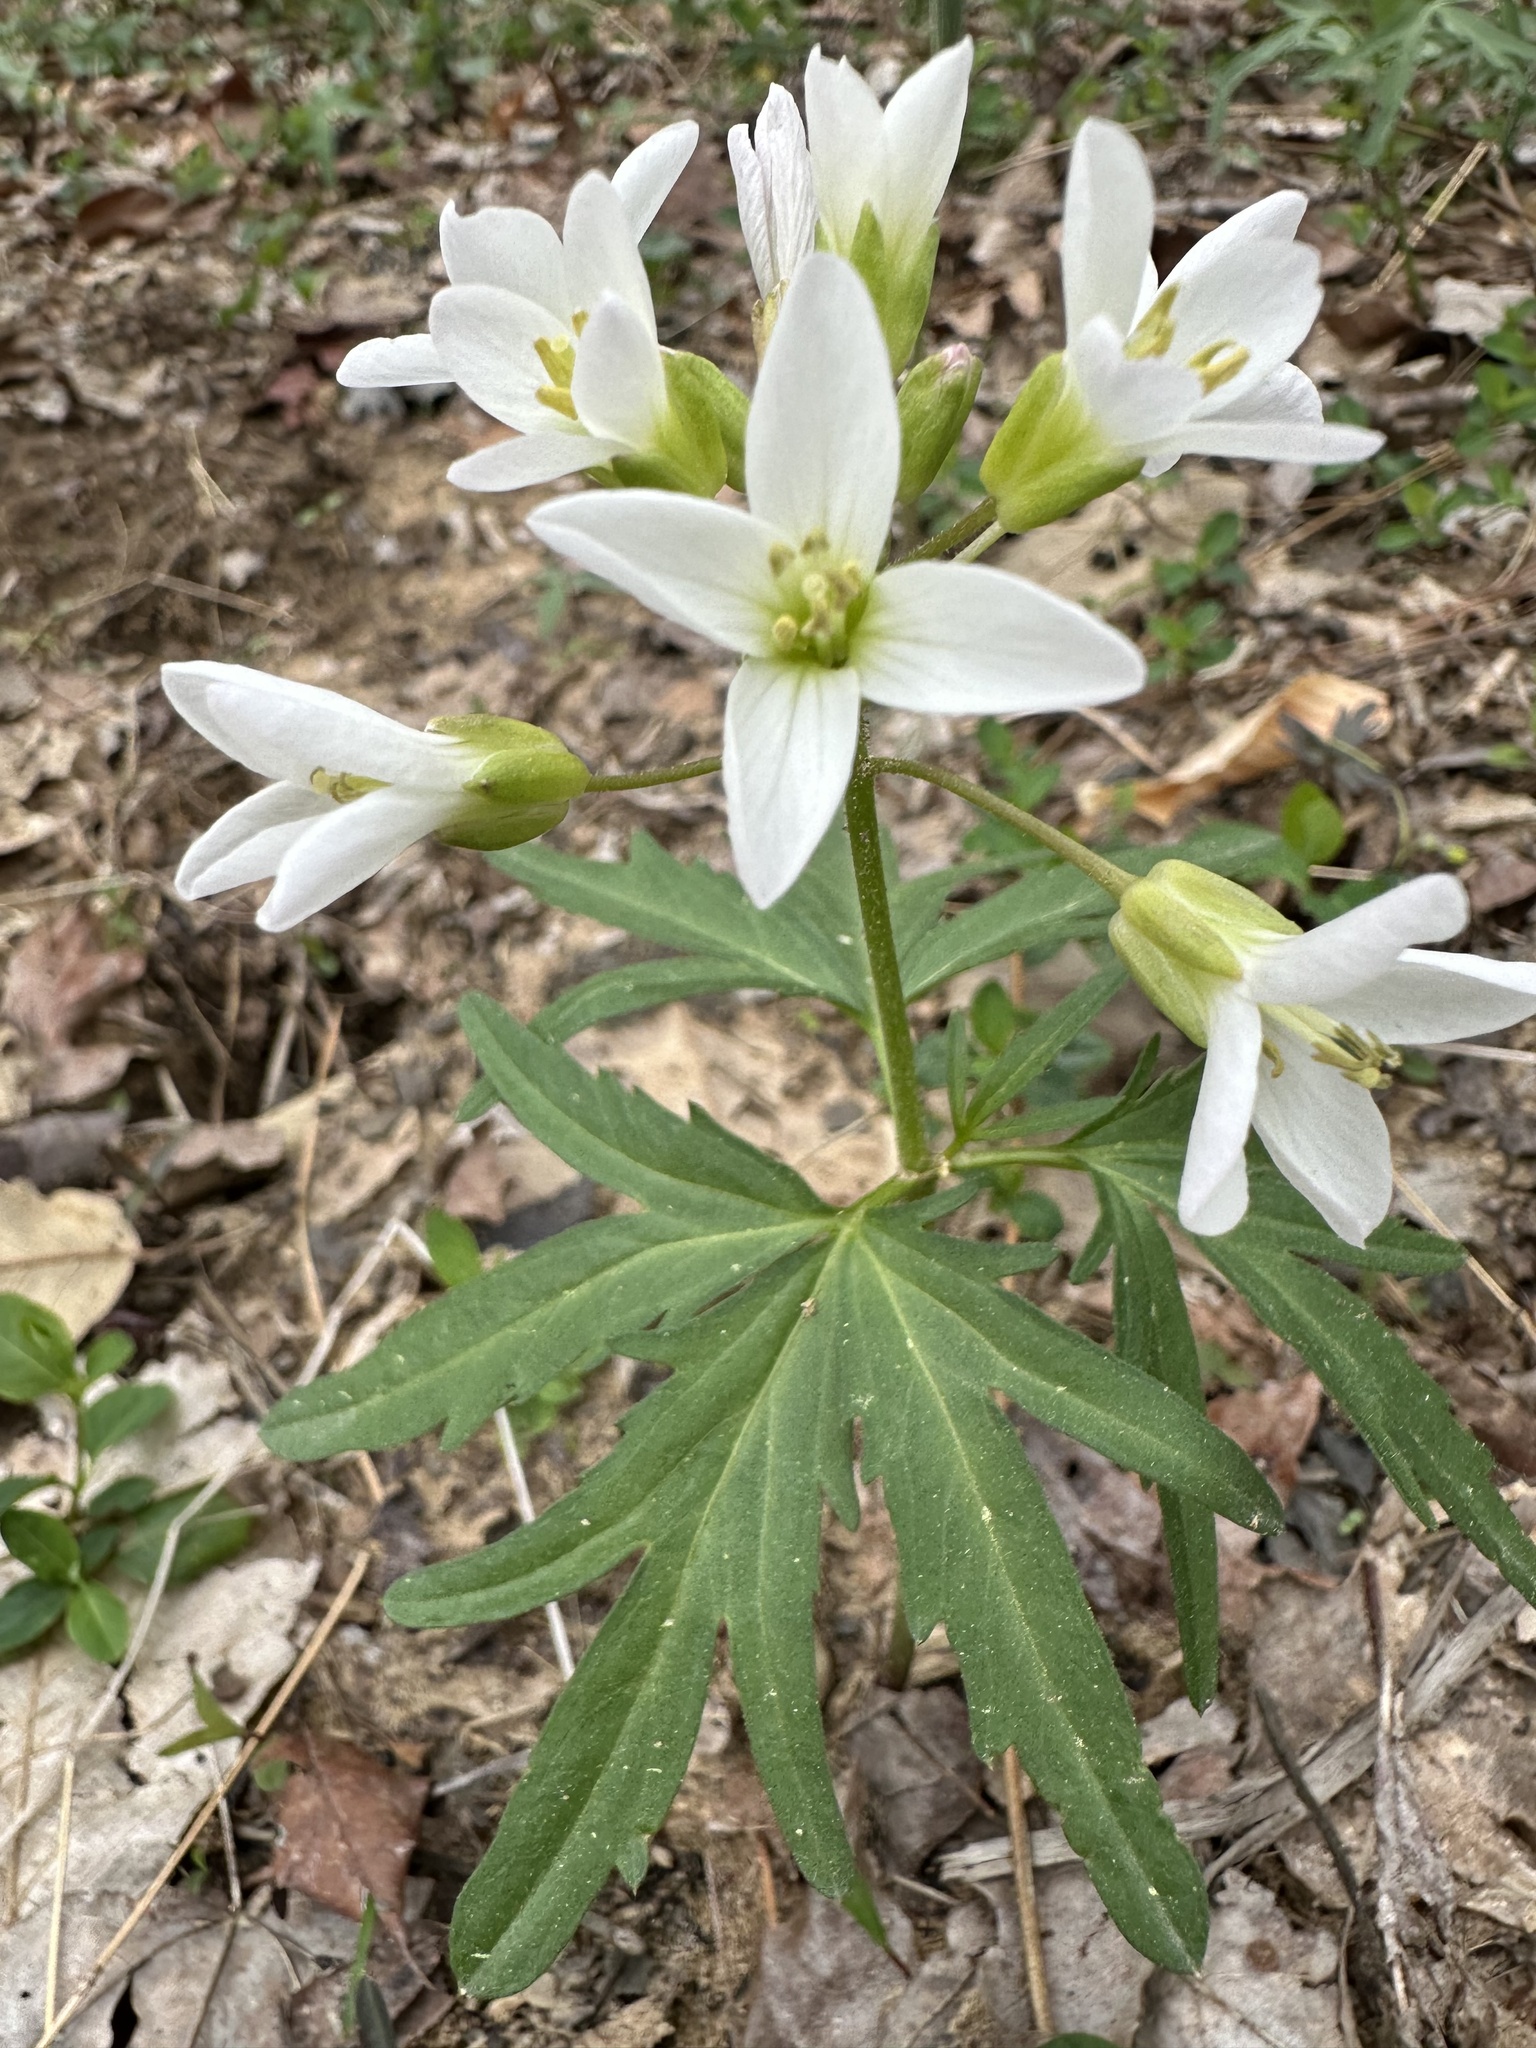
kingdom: Plantae
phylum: Tracheophyta
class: Magnoliopsida
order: Brassicales
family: Brassicaceae
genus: Cardamine
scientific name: Cardamine concatenata
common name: Cut-leaf toothcup
